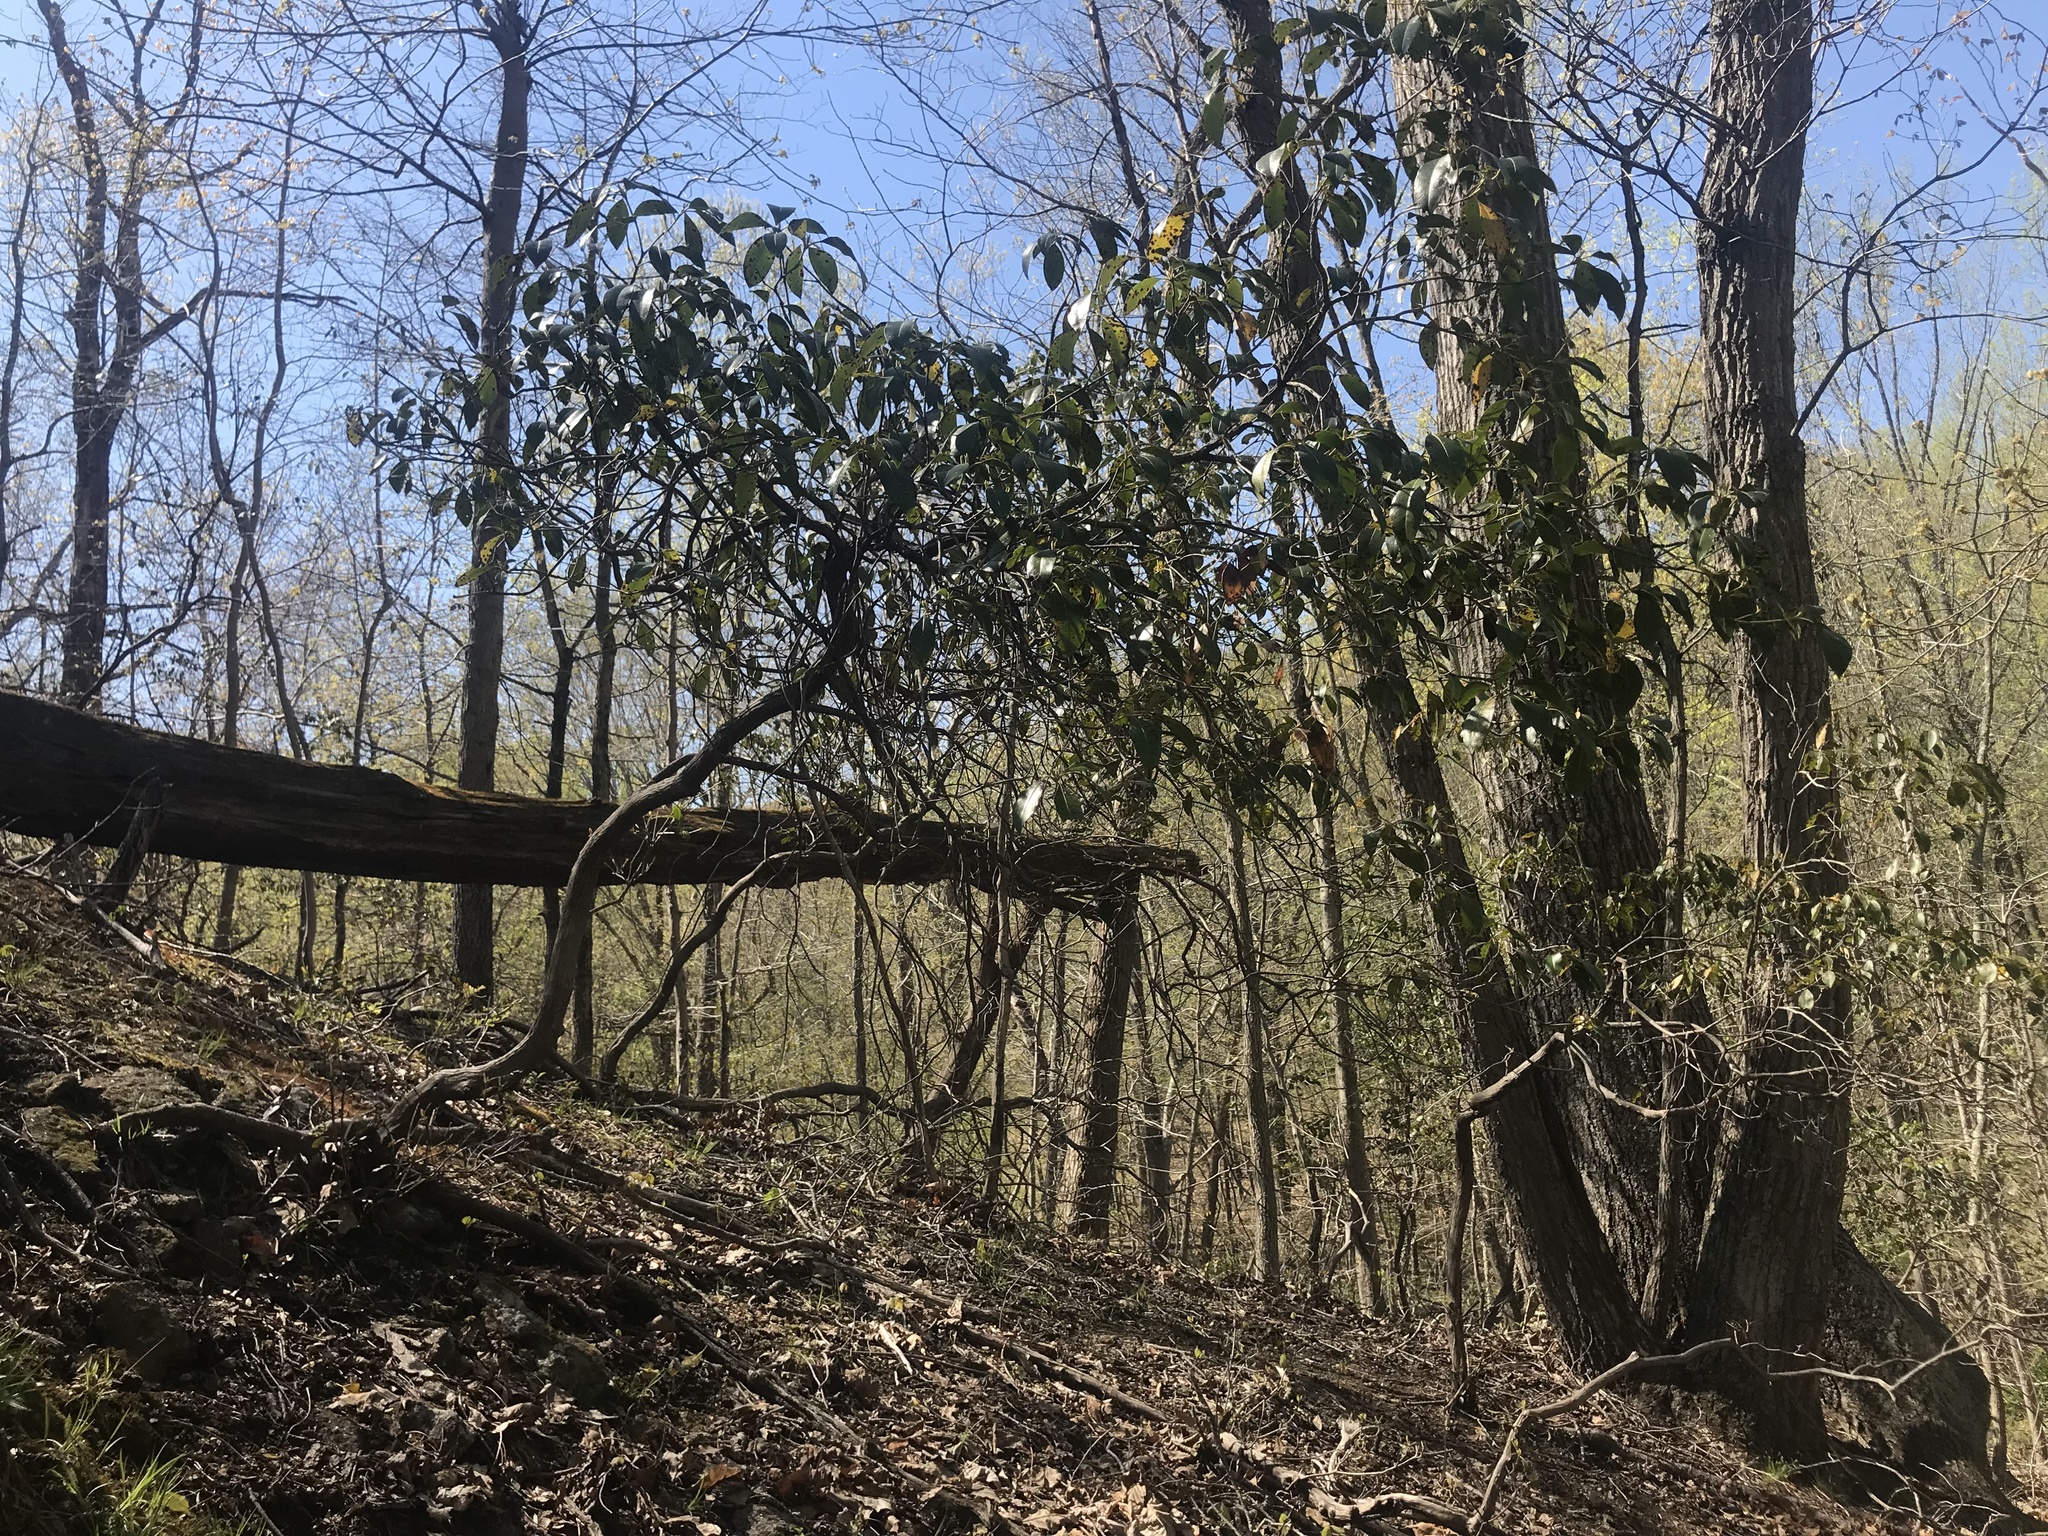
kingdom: Plantae
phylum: Tracheophyta
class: Magnoliopsida
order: Ericales
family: Ericaceae
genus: Kalmia
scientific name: Kalmia latifolia
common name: Mountain-laurel
